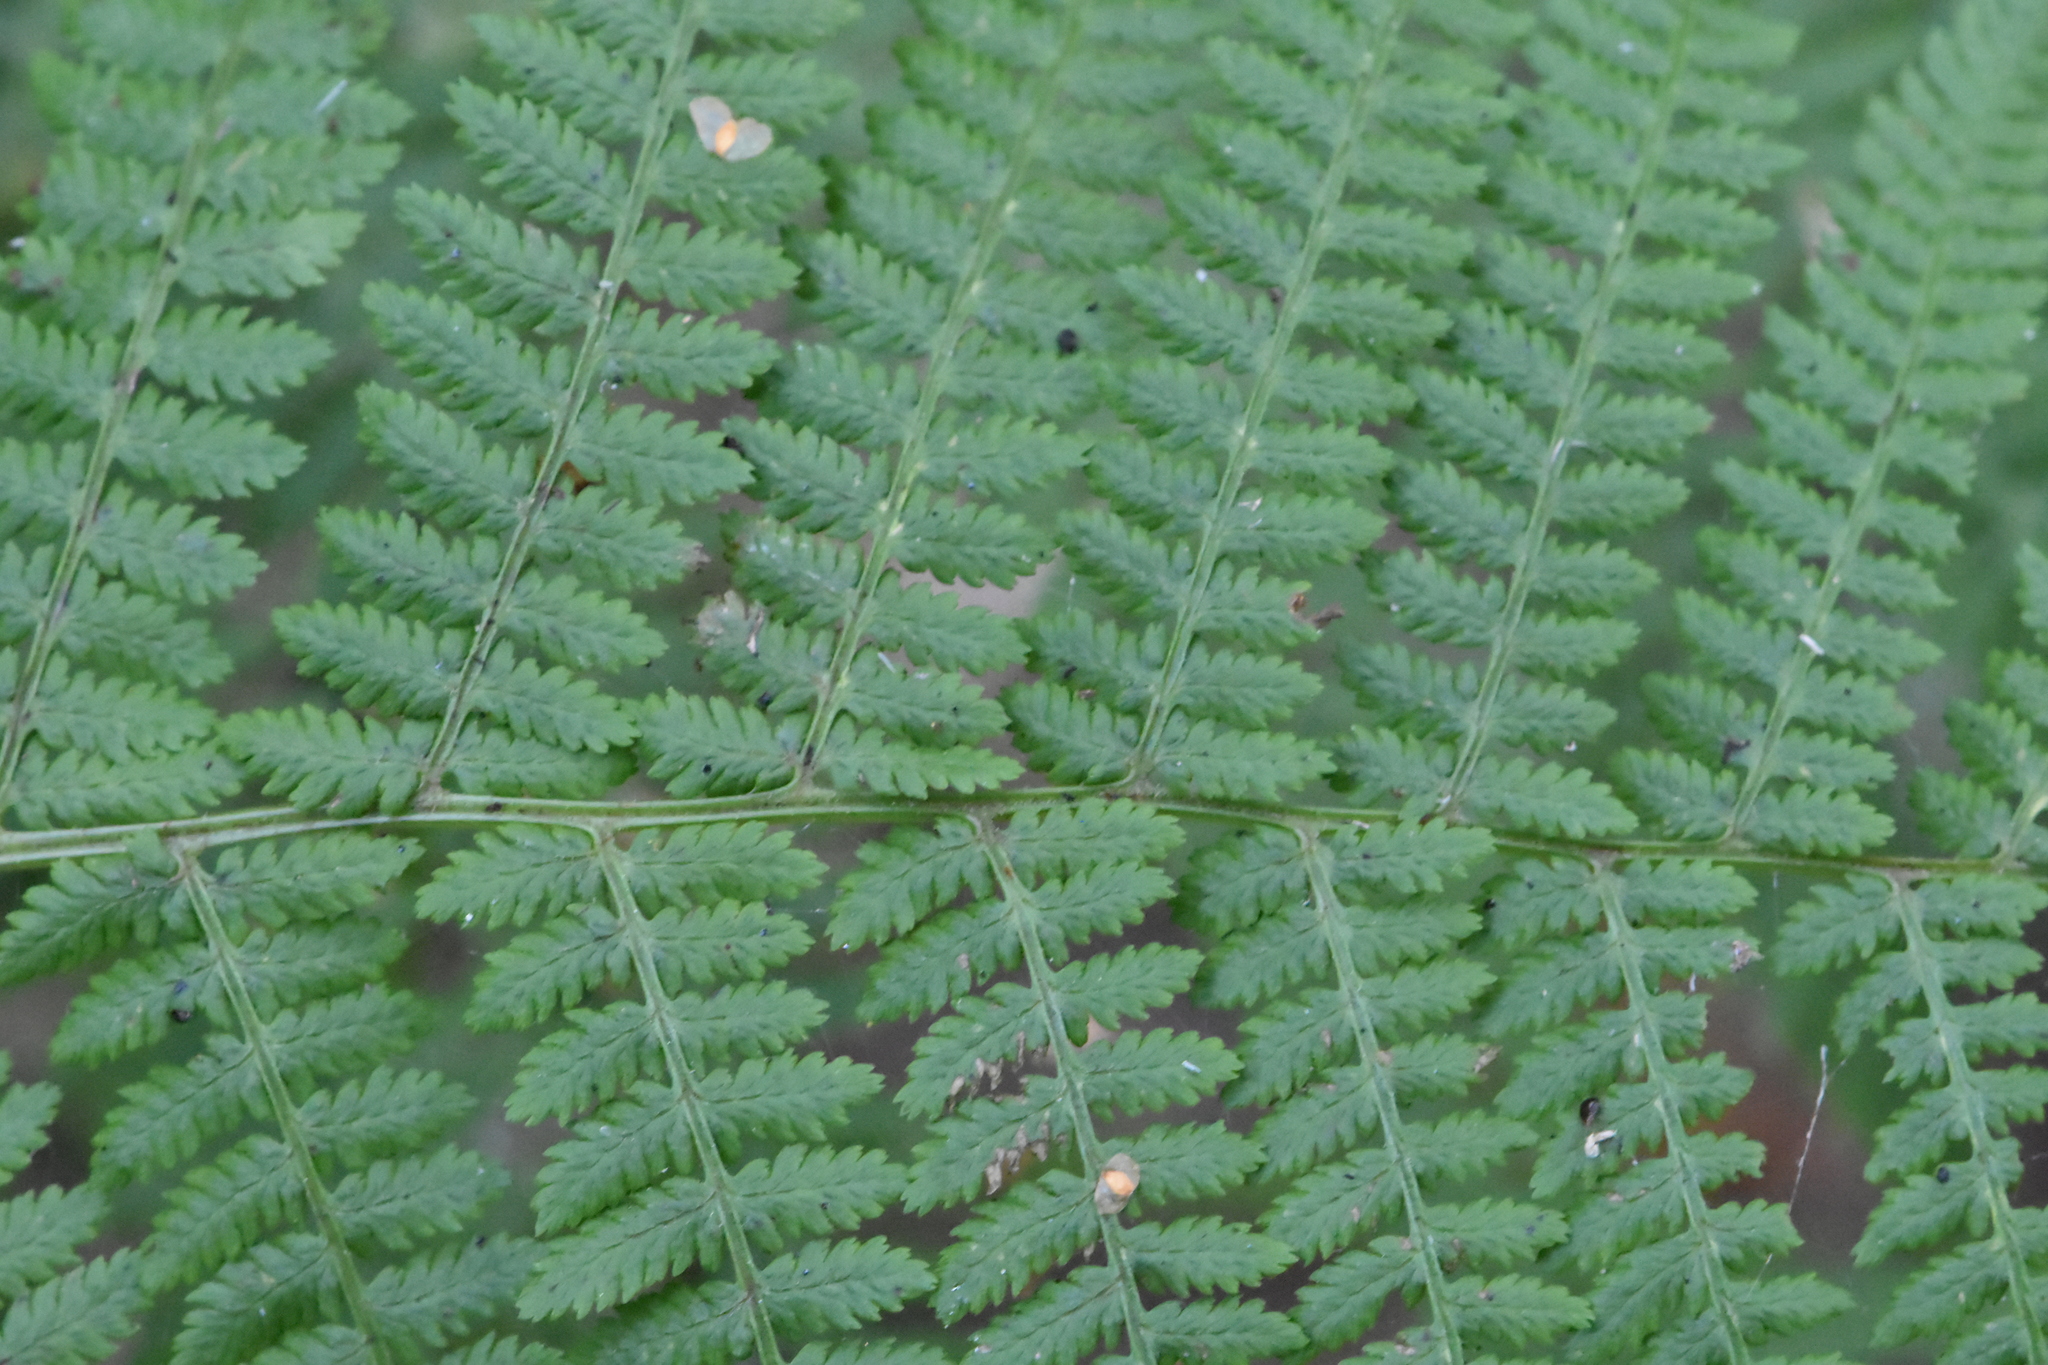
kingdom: Plantae
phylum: Tracheophyta
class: Polypodiopsida
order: Polypodiales
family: Athyriaceae
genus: Athyrium
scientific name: Athyrium filix-femina
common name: Lady fern
